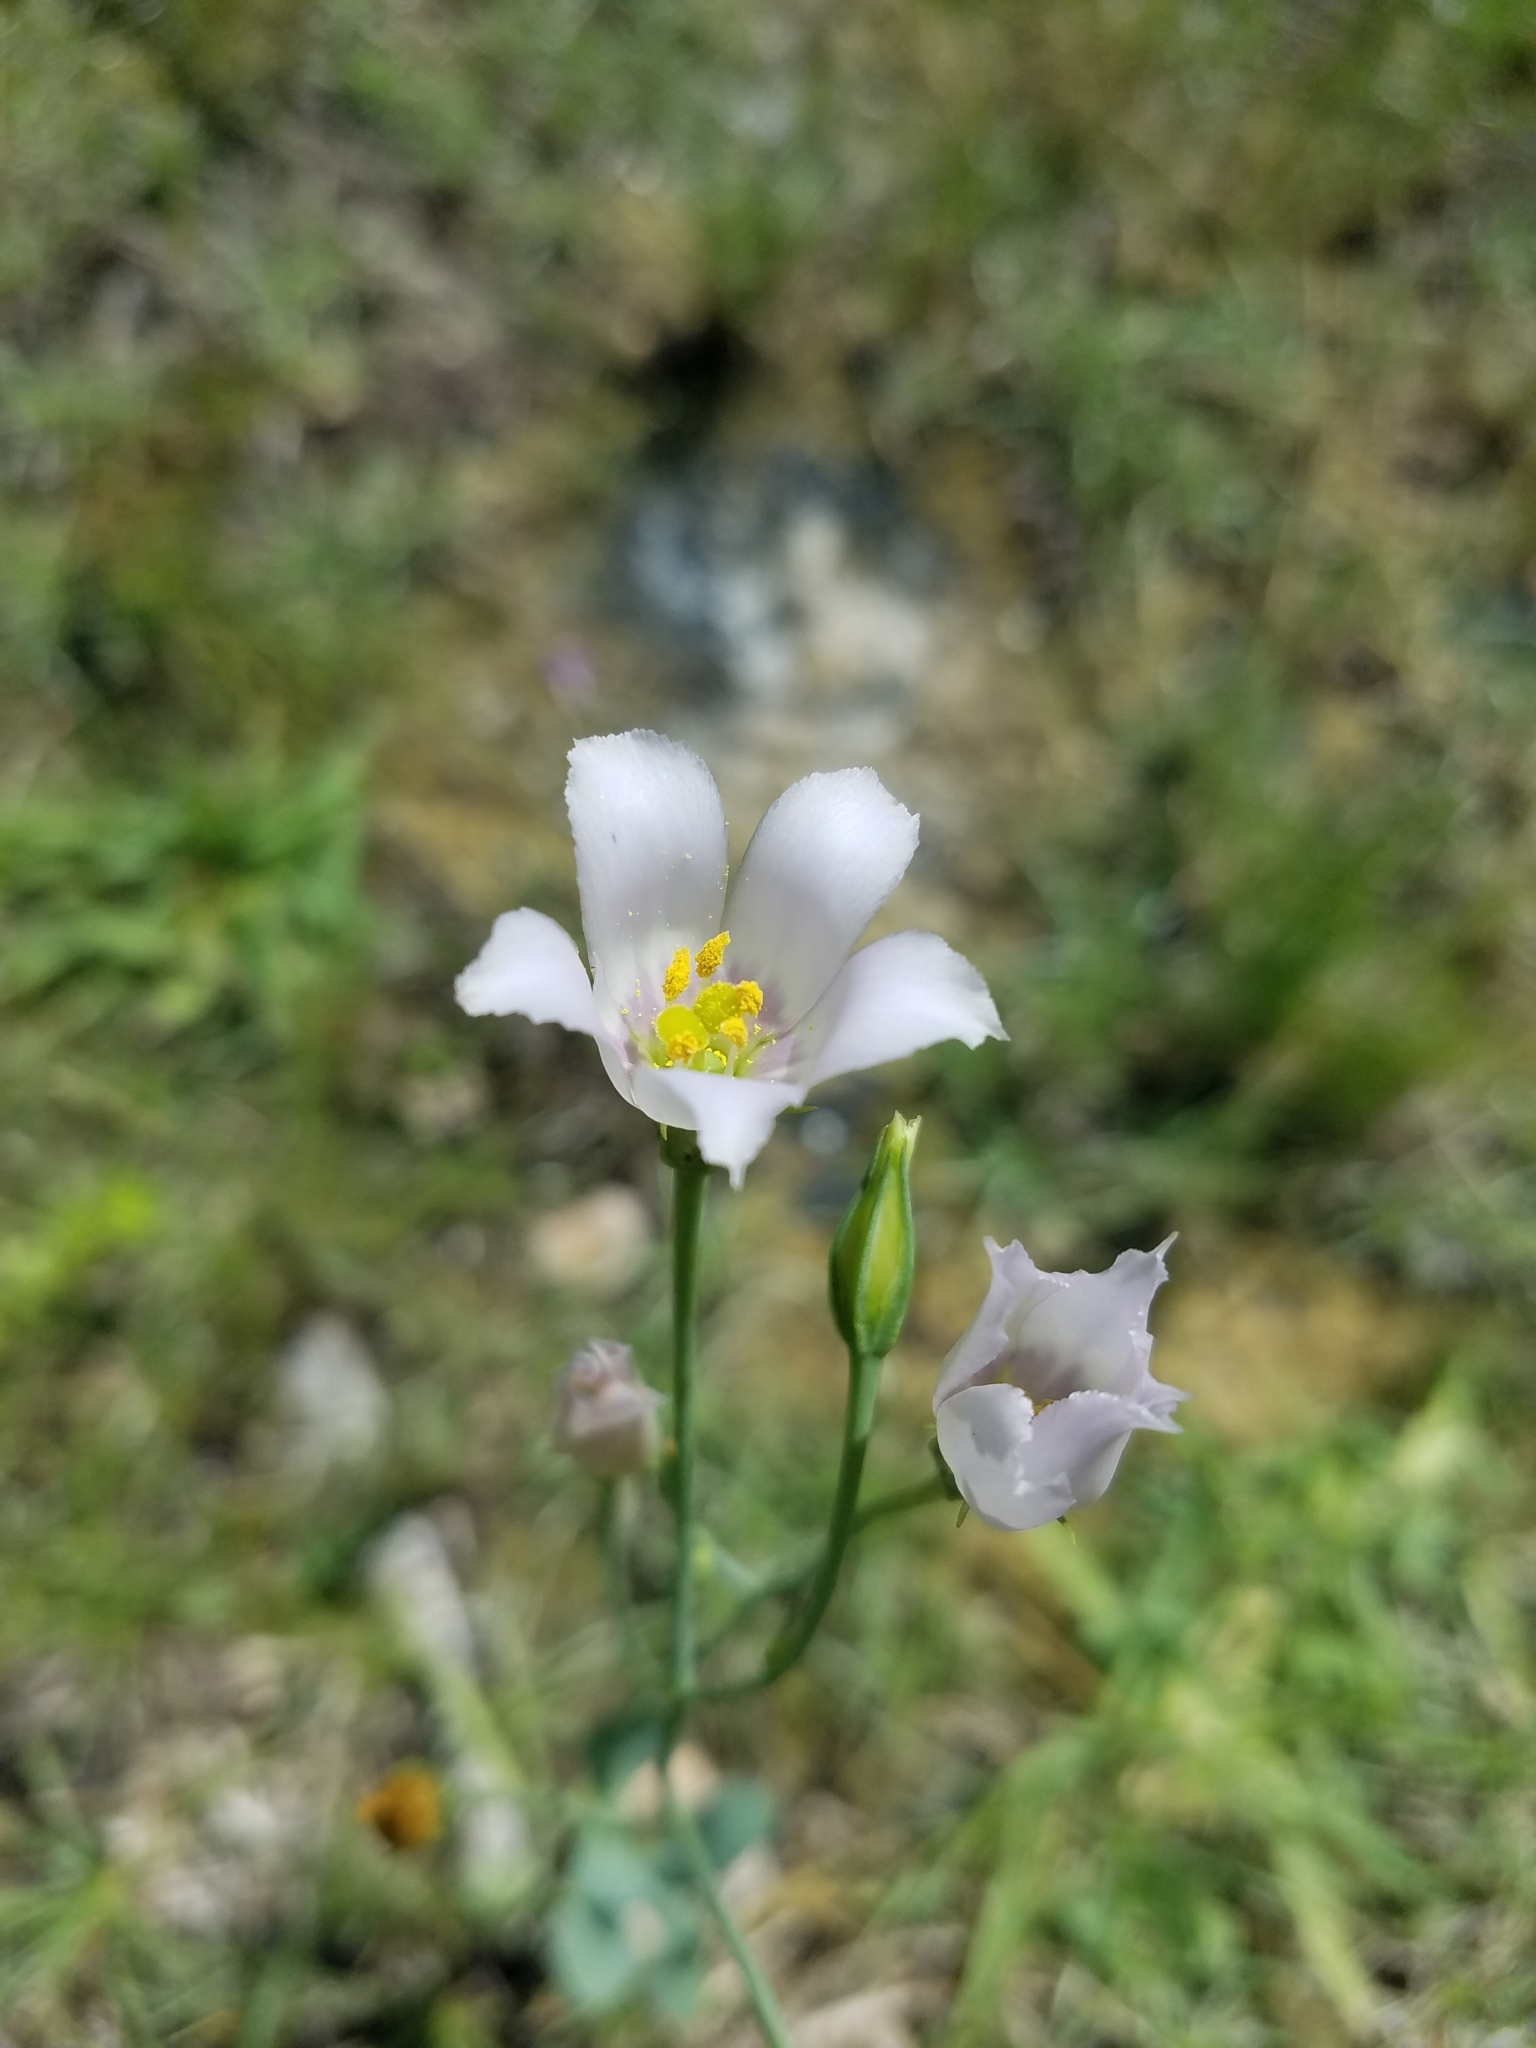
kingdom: Plantae
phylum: Tracheophyta
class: Magnoliopsida
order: Gentianales
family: Gentianaceae
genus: Eustoma
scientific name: Eustoma exaltatum
